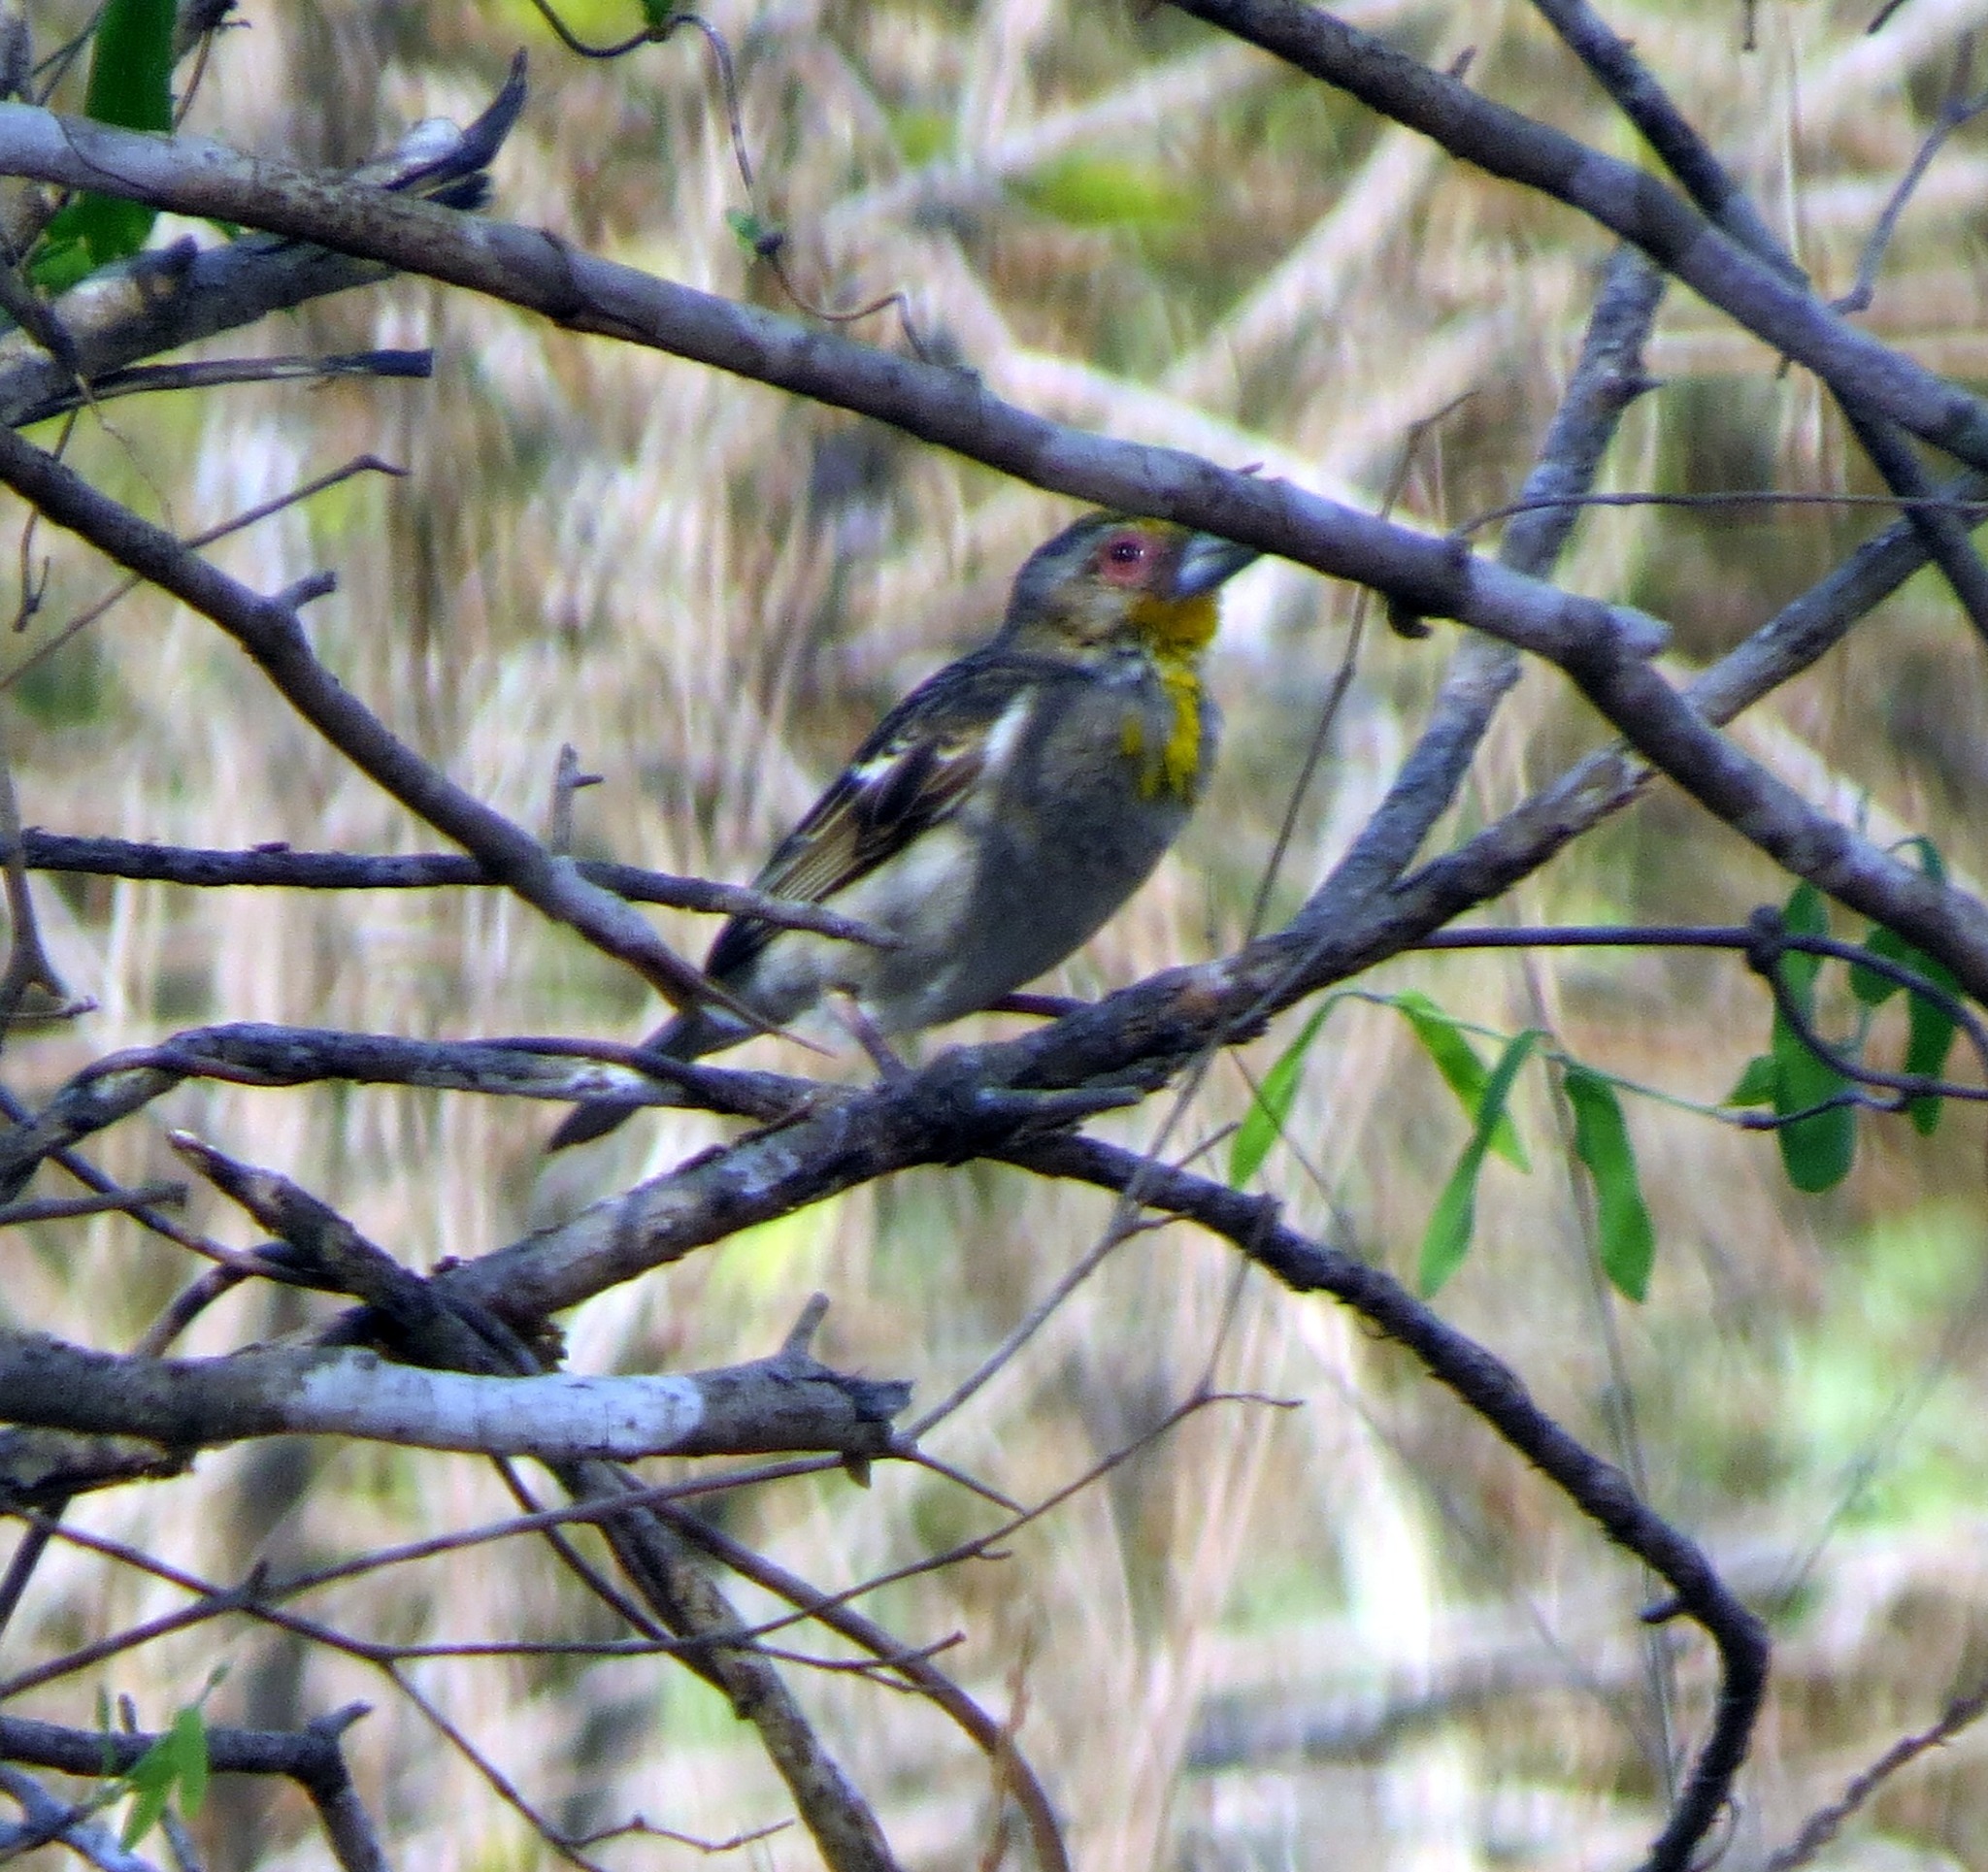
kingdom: Animalia
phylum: Chordata
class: Aves
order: Passeriformes
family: Ploceidae
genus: Ploceus
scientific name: Ploceus sakalava
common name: Sakalava weaver
